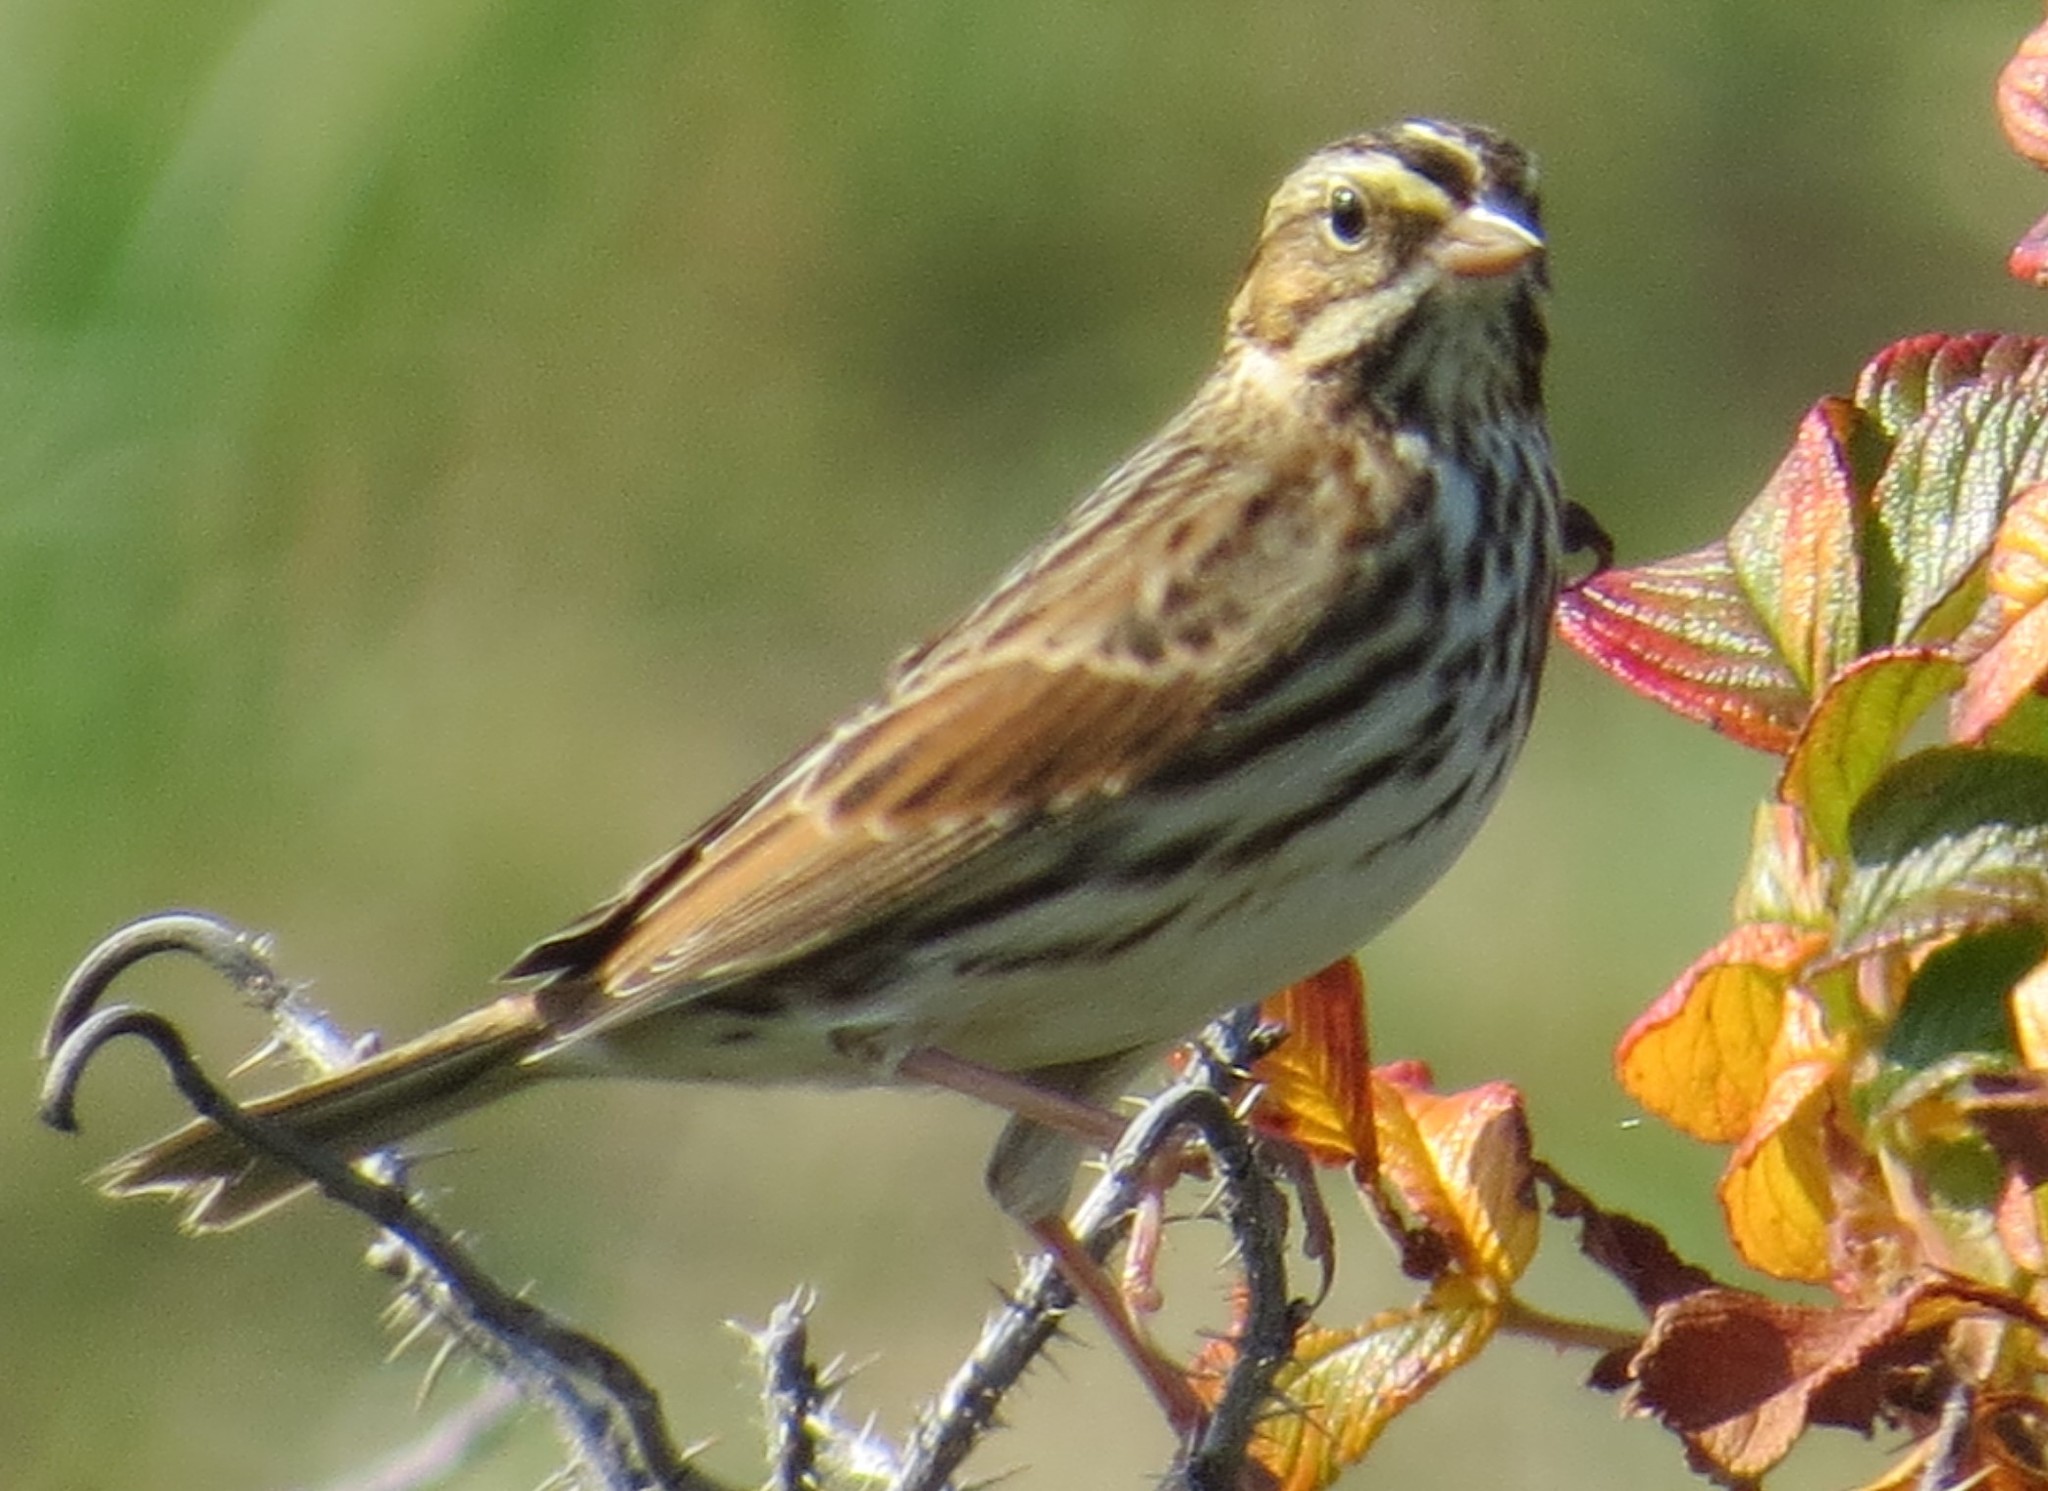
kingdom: Animalia
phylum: Chordata
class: Aves
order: Passeriformes
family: Passerellidae
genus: Passerculus
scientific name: Passerculus sandwichensis
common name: Savannah sparrow
